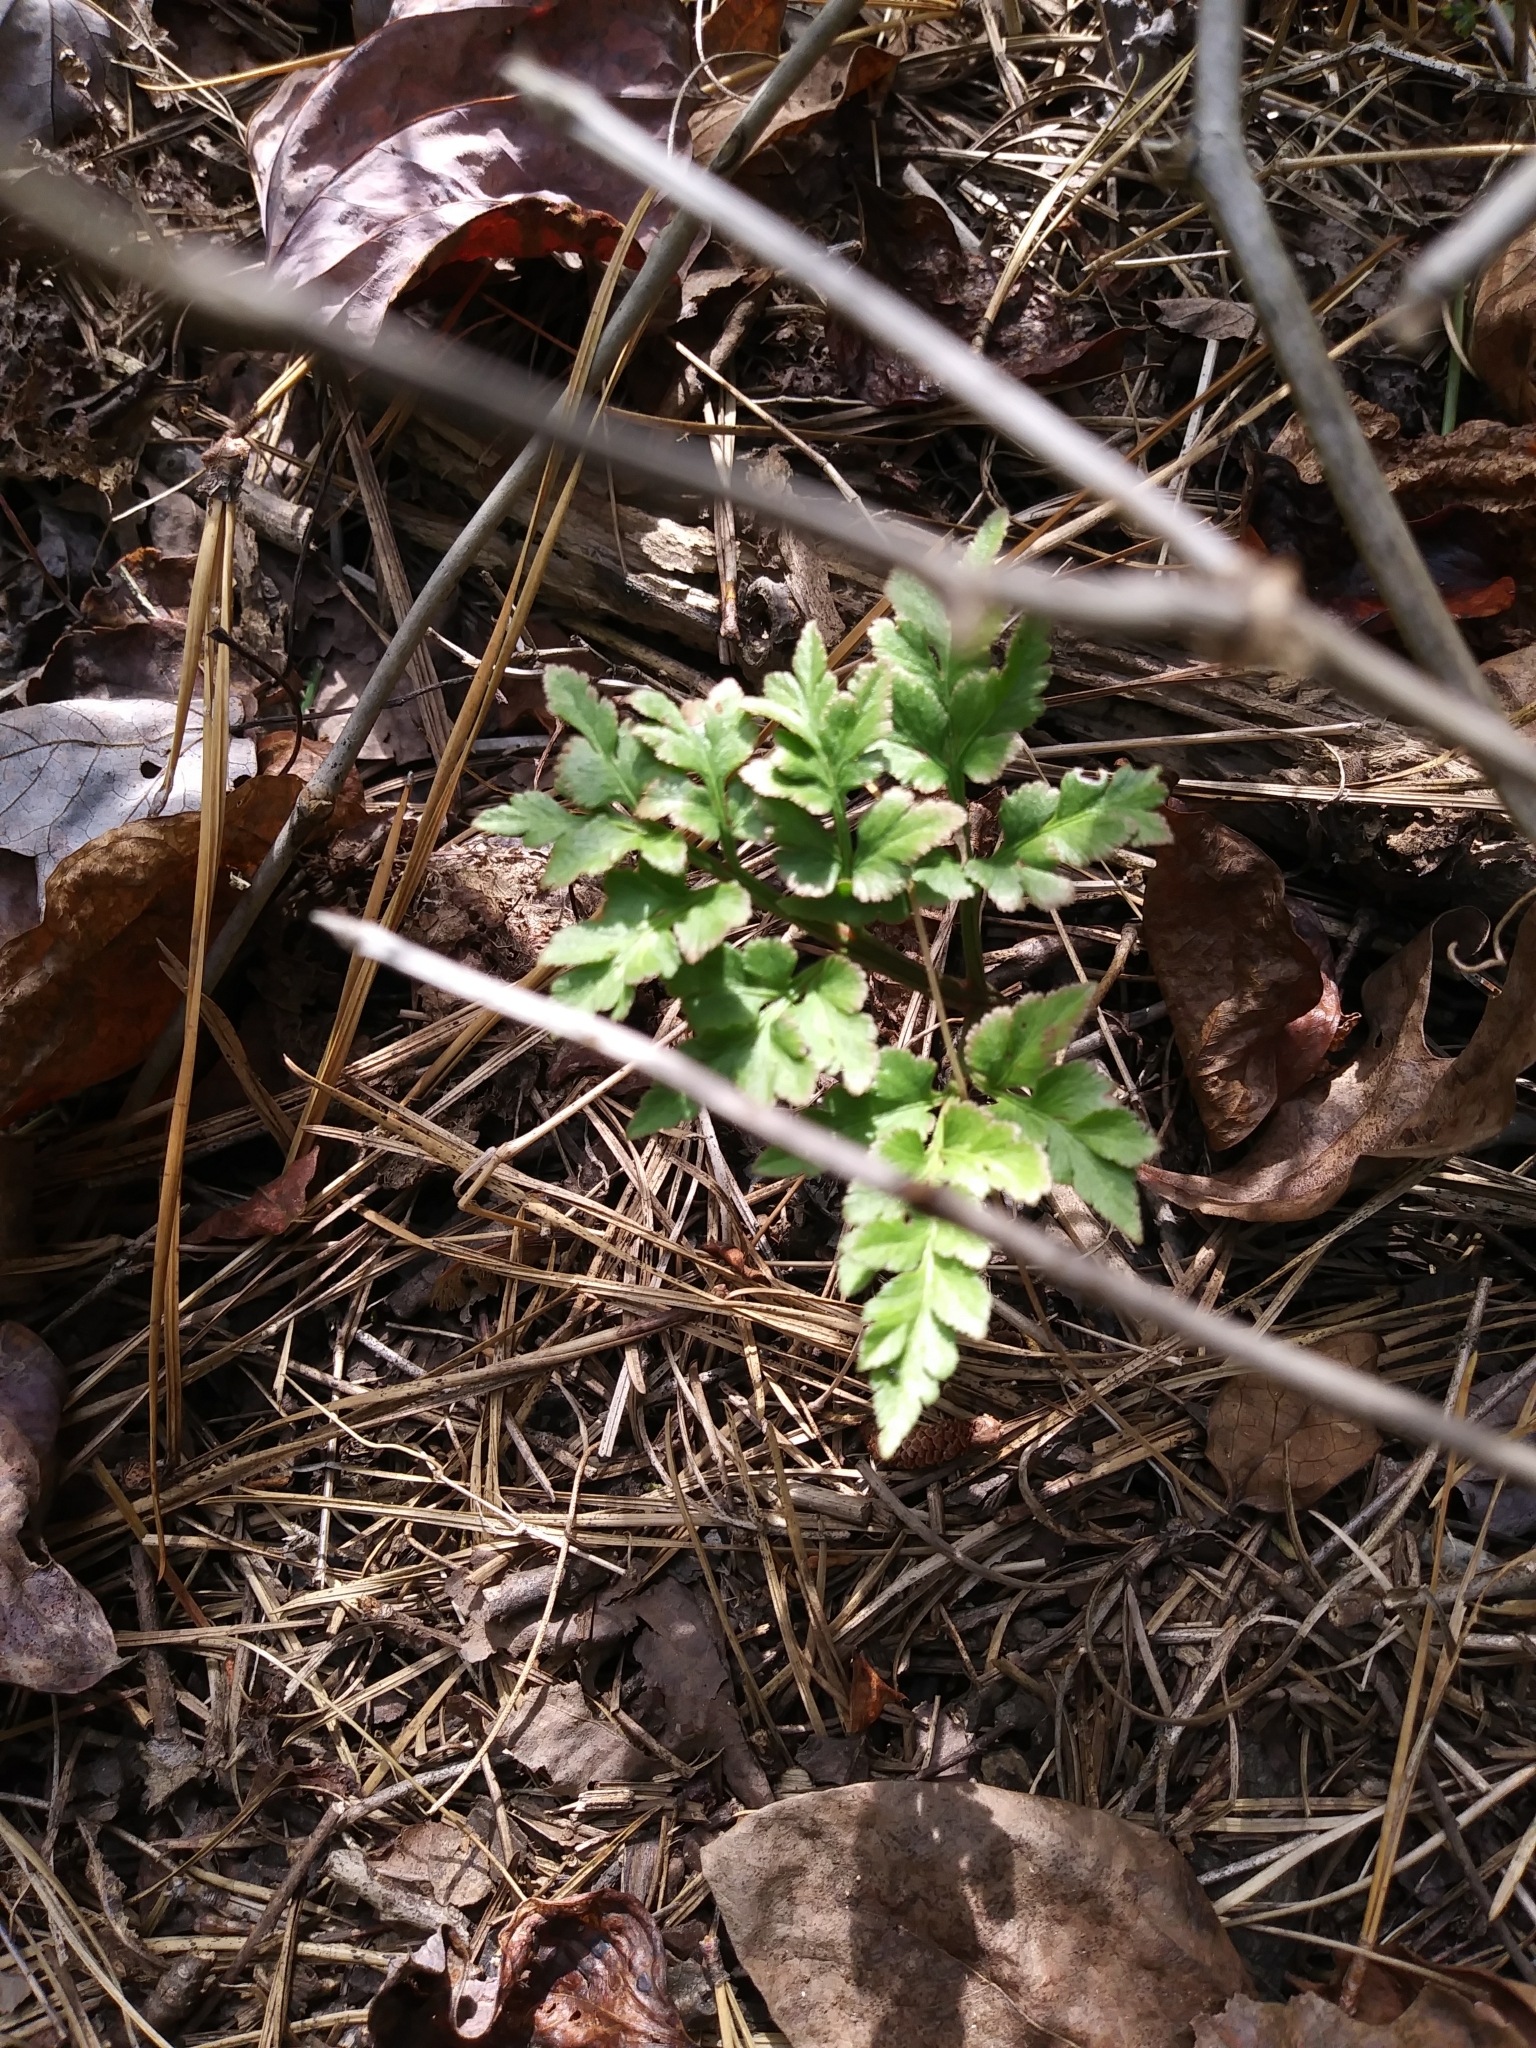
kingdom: Plantae
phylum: Tracheophyta
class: Polypodiopsida
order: Ophioglossales
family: Ophioglossaceae
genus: Sceptridium
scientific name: Sceptridium dissectum
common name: Cut-leaved grapefern
